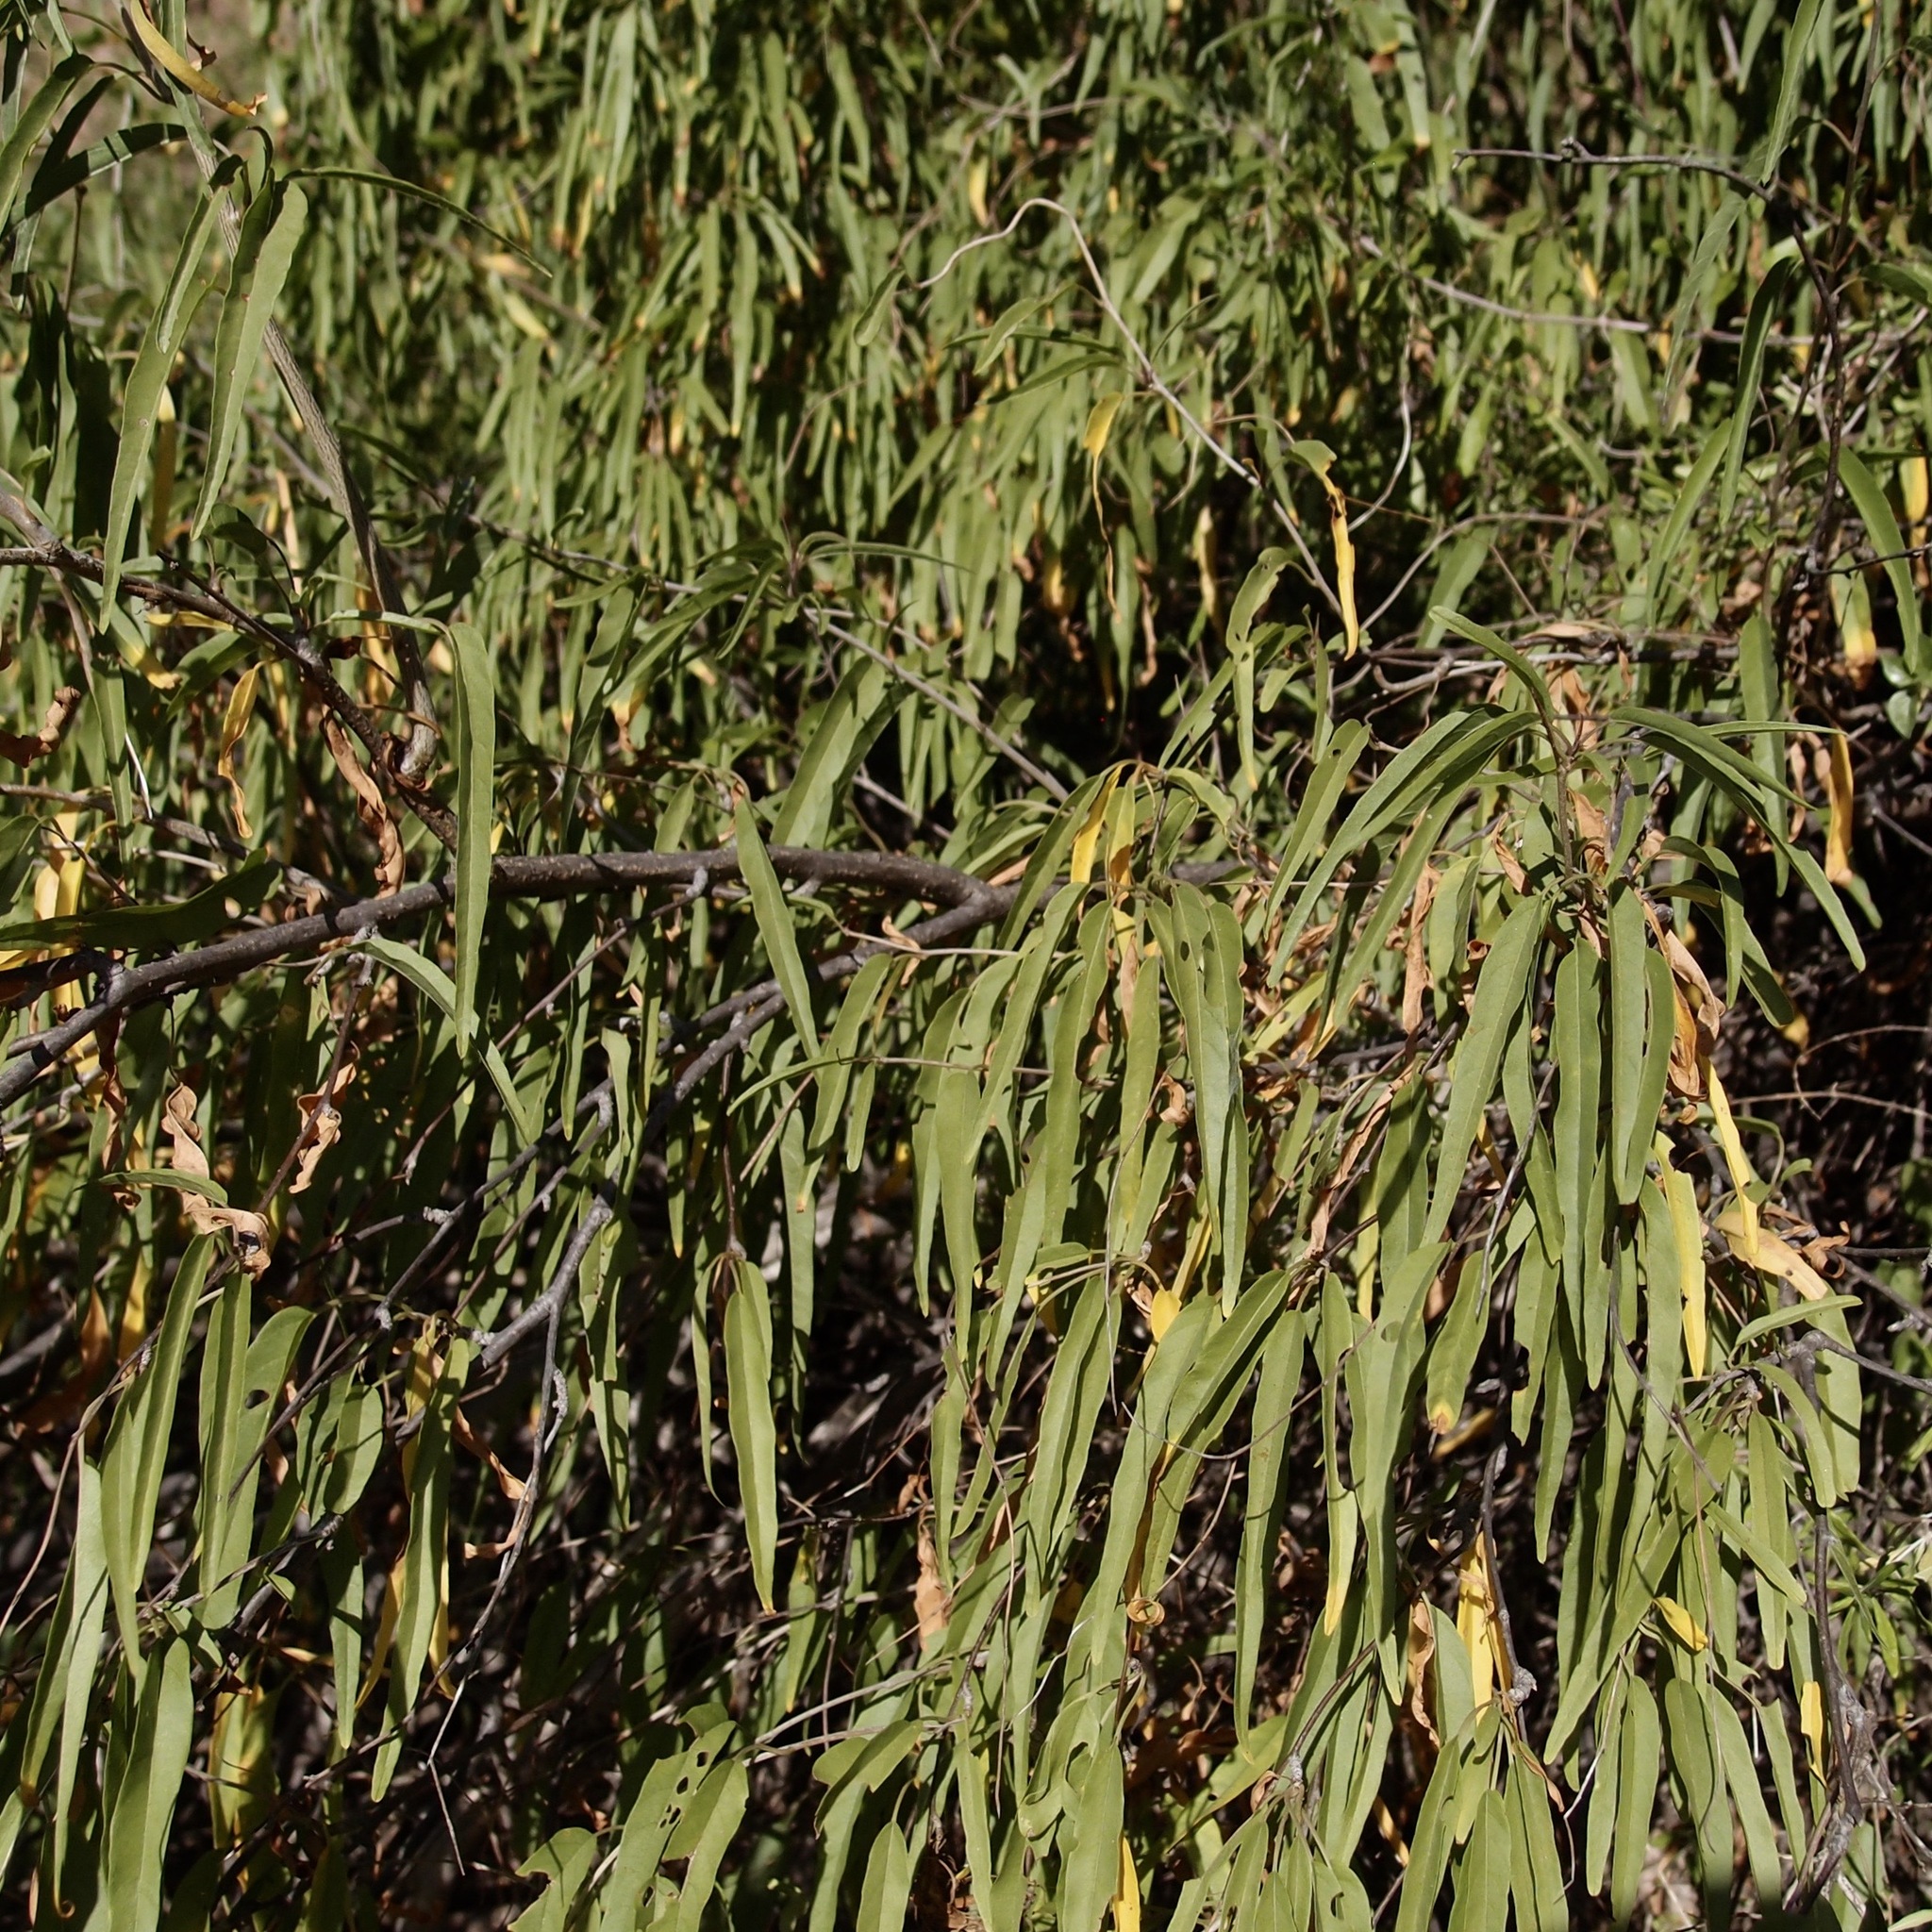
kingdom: Plantae
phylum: Tracheophyta
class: Magnoliopsida
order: Solanales
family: Convolvulaceae
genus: Ipomoea
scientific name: Ipomoea seaania
